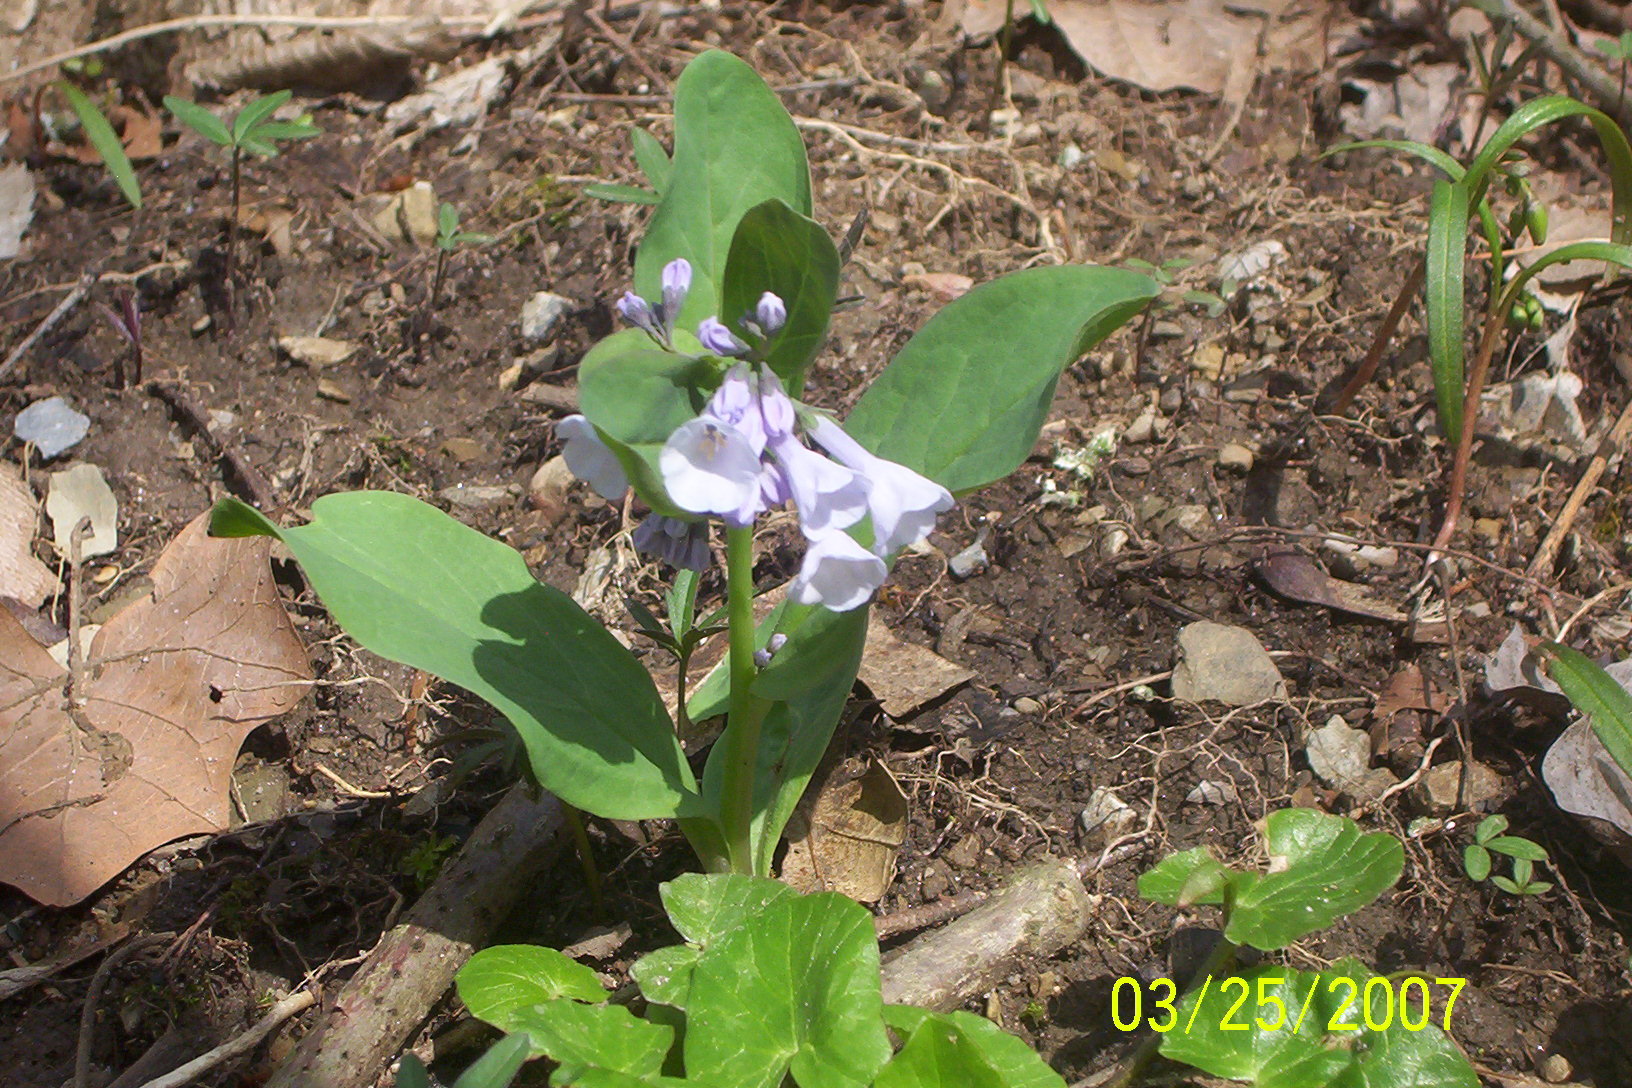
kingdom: Plantae
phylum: Tracheophyta
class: Magnoliopsida
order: Boraginales
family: Boraginaceae
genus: Mertensia
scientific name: Mertensia virginica
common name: Virginia bluebells
